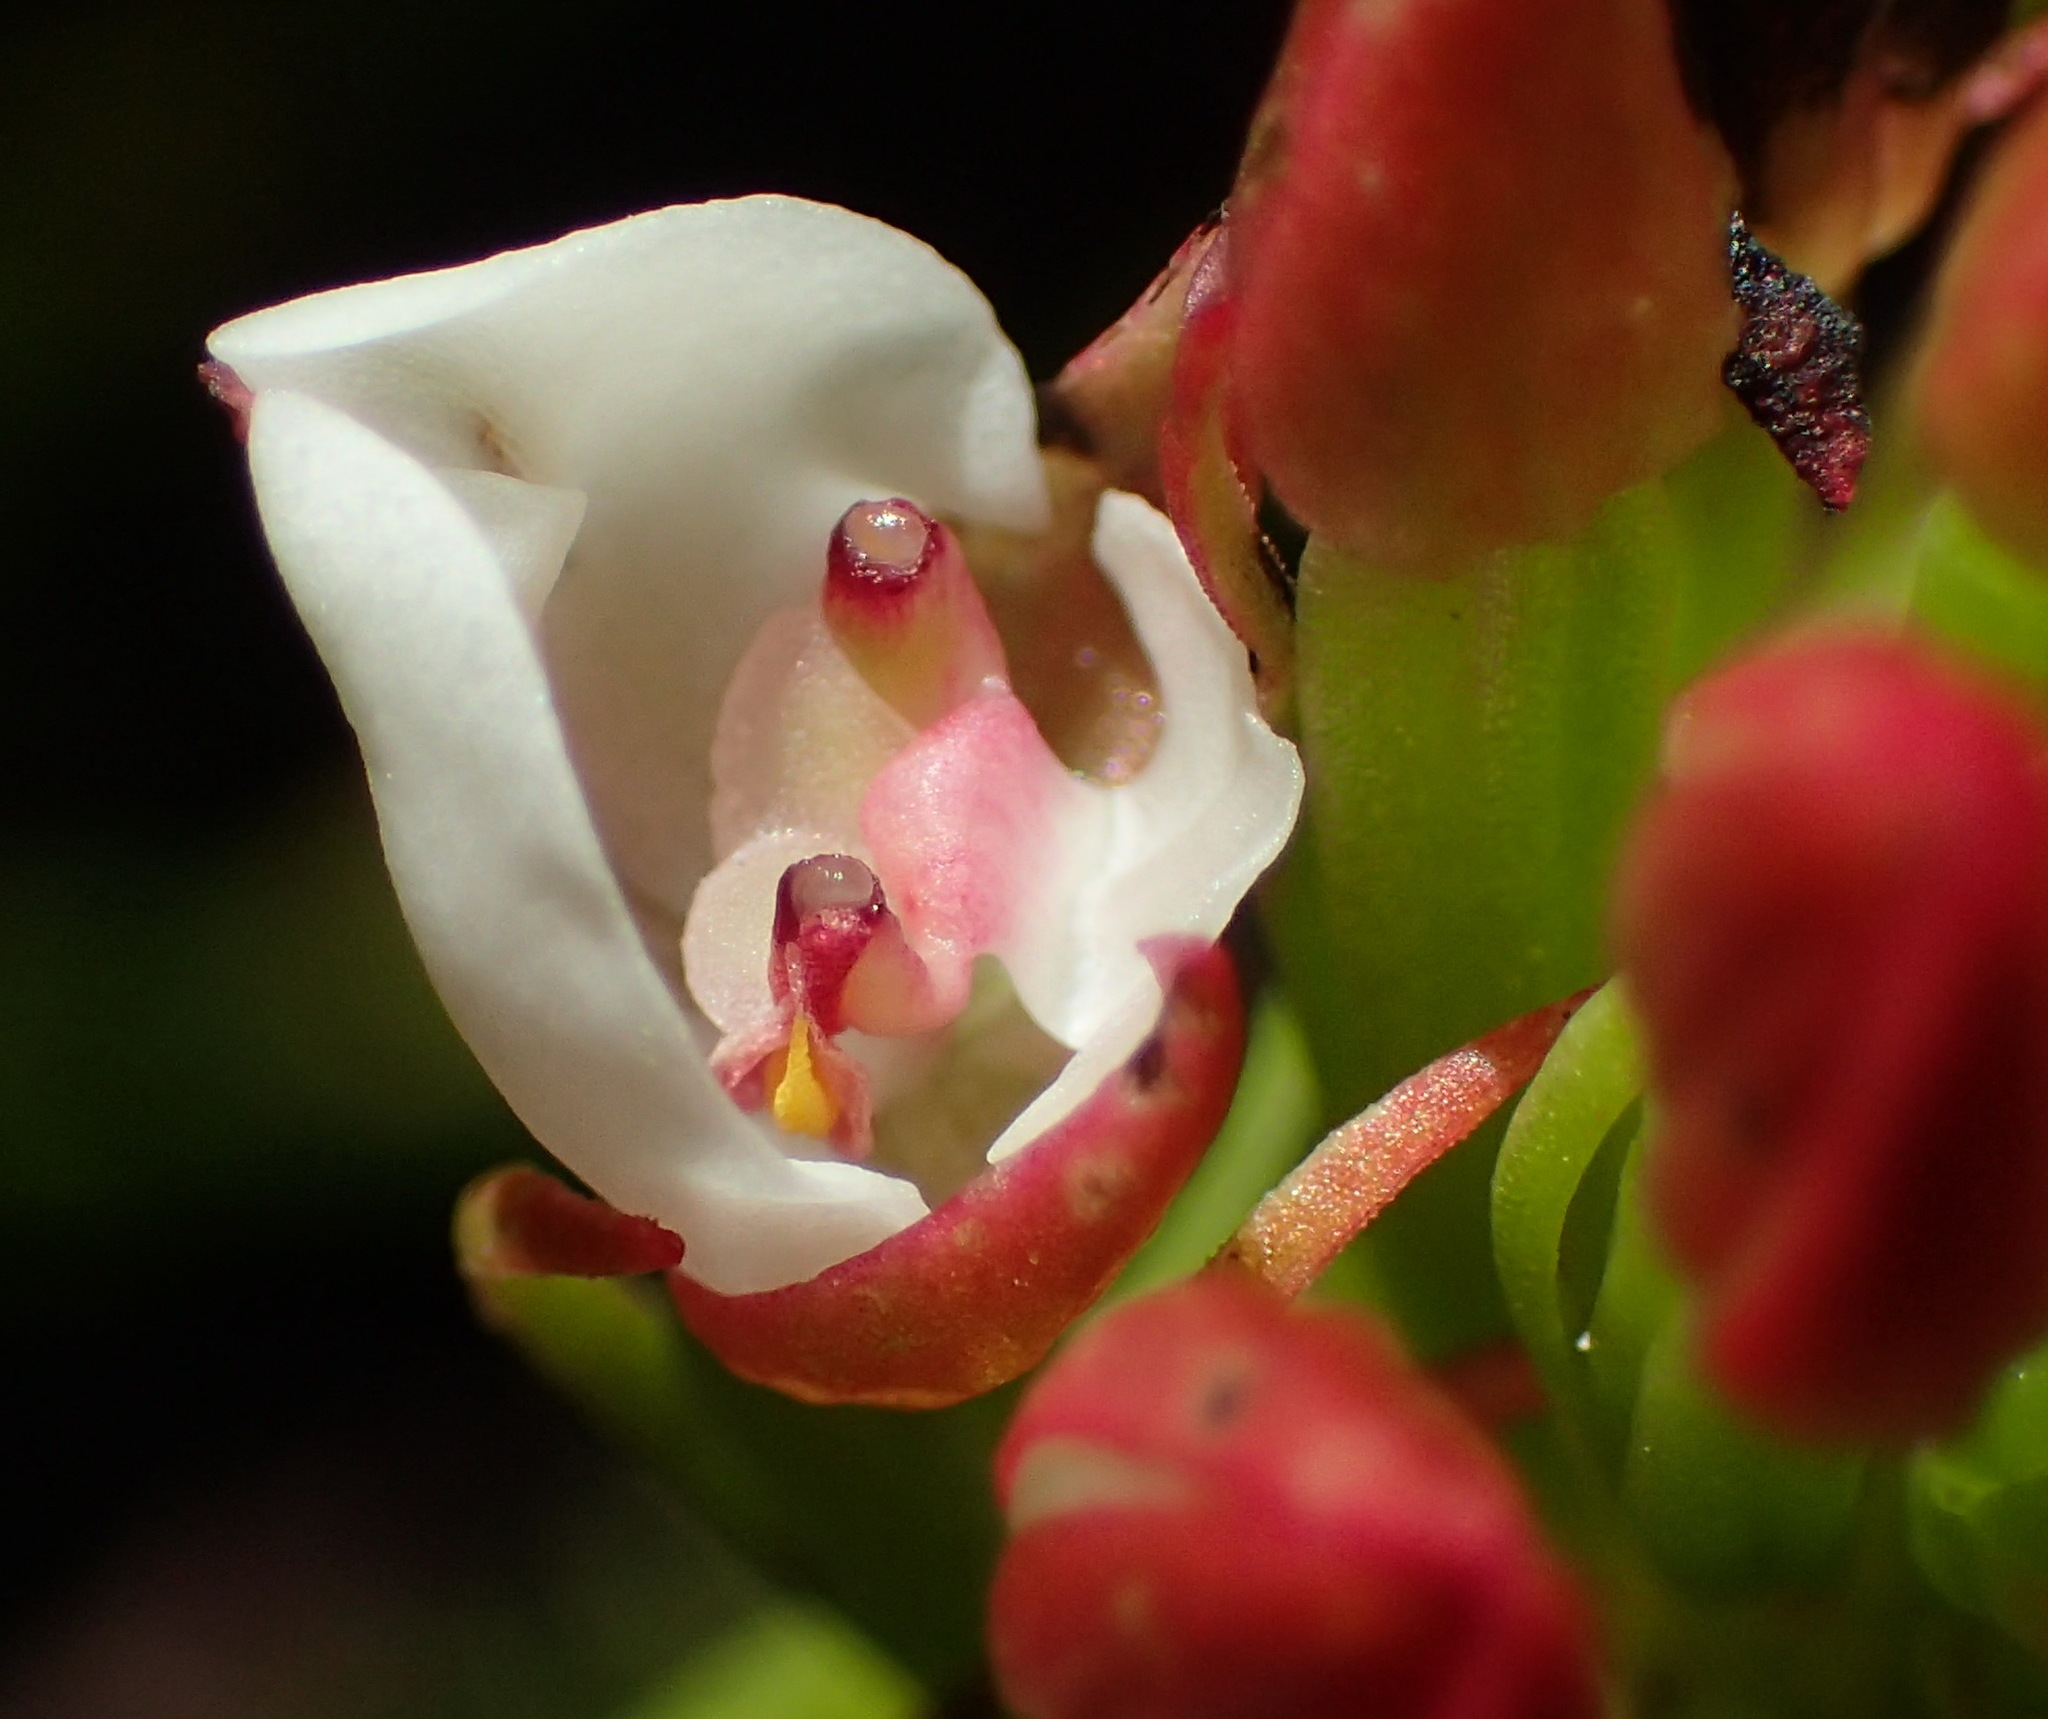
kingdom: Plantae
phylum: Tracheophyta
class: Liliopsida
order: Asparagales
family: Orchidaceae
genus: Ceratandra
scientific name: Ceratandra globosa
